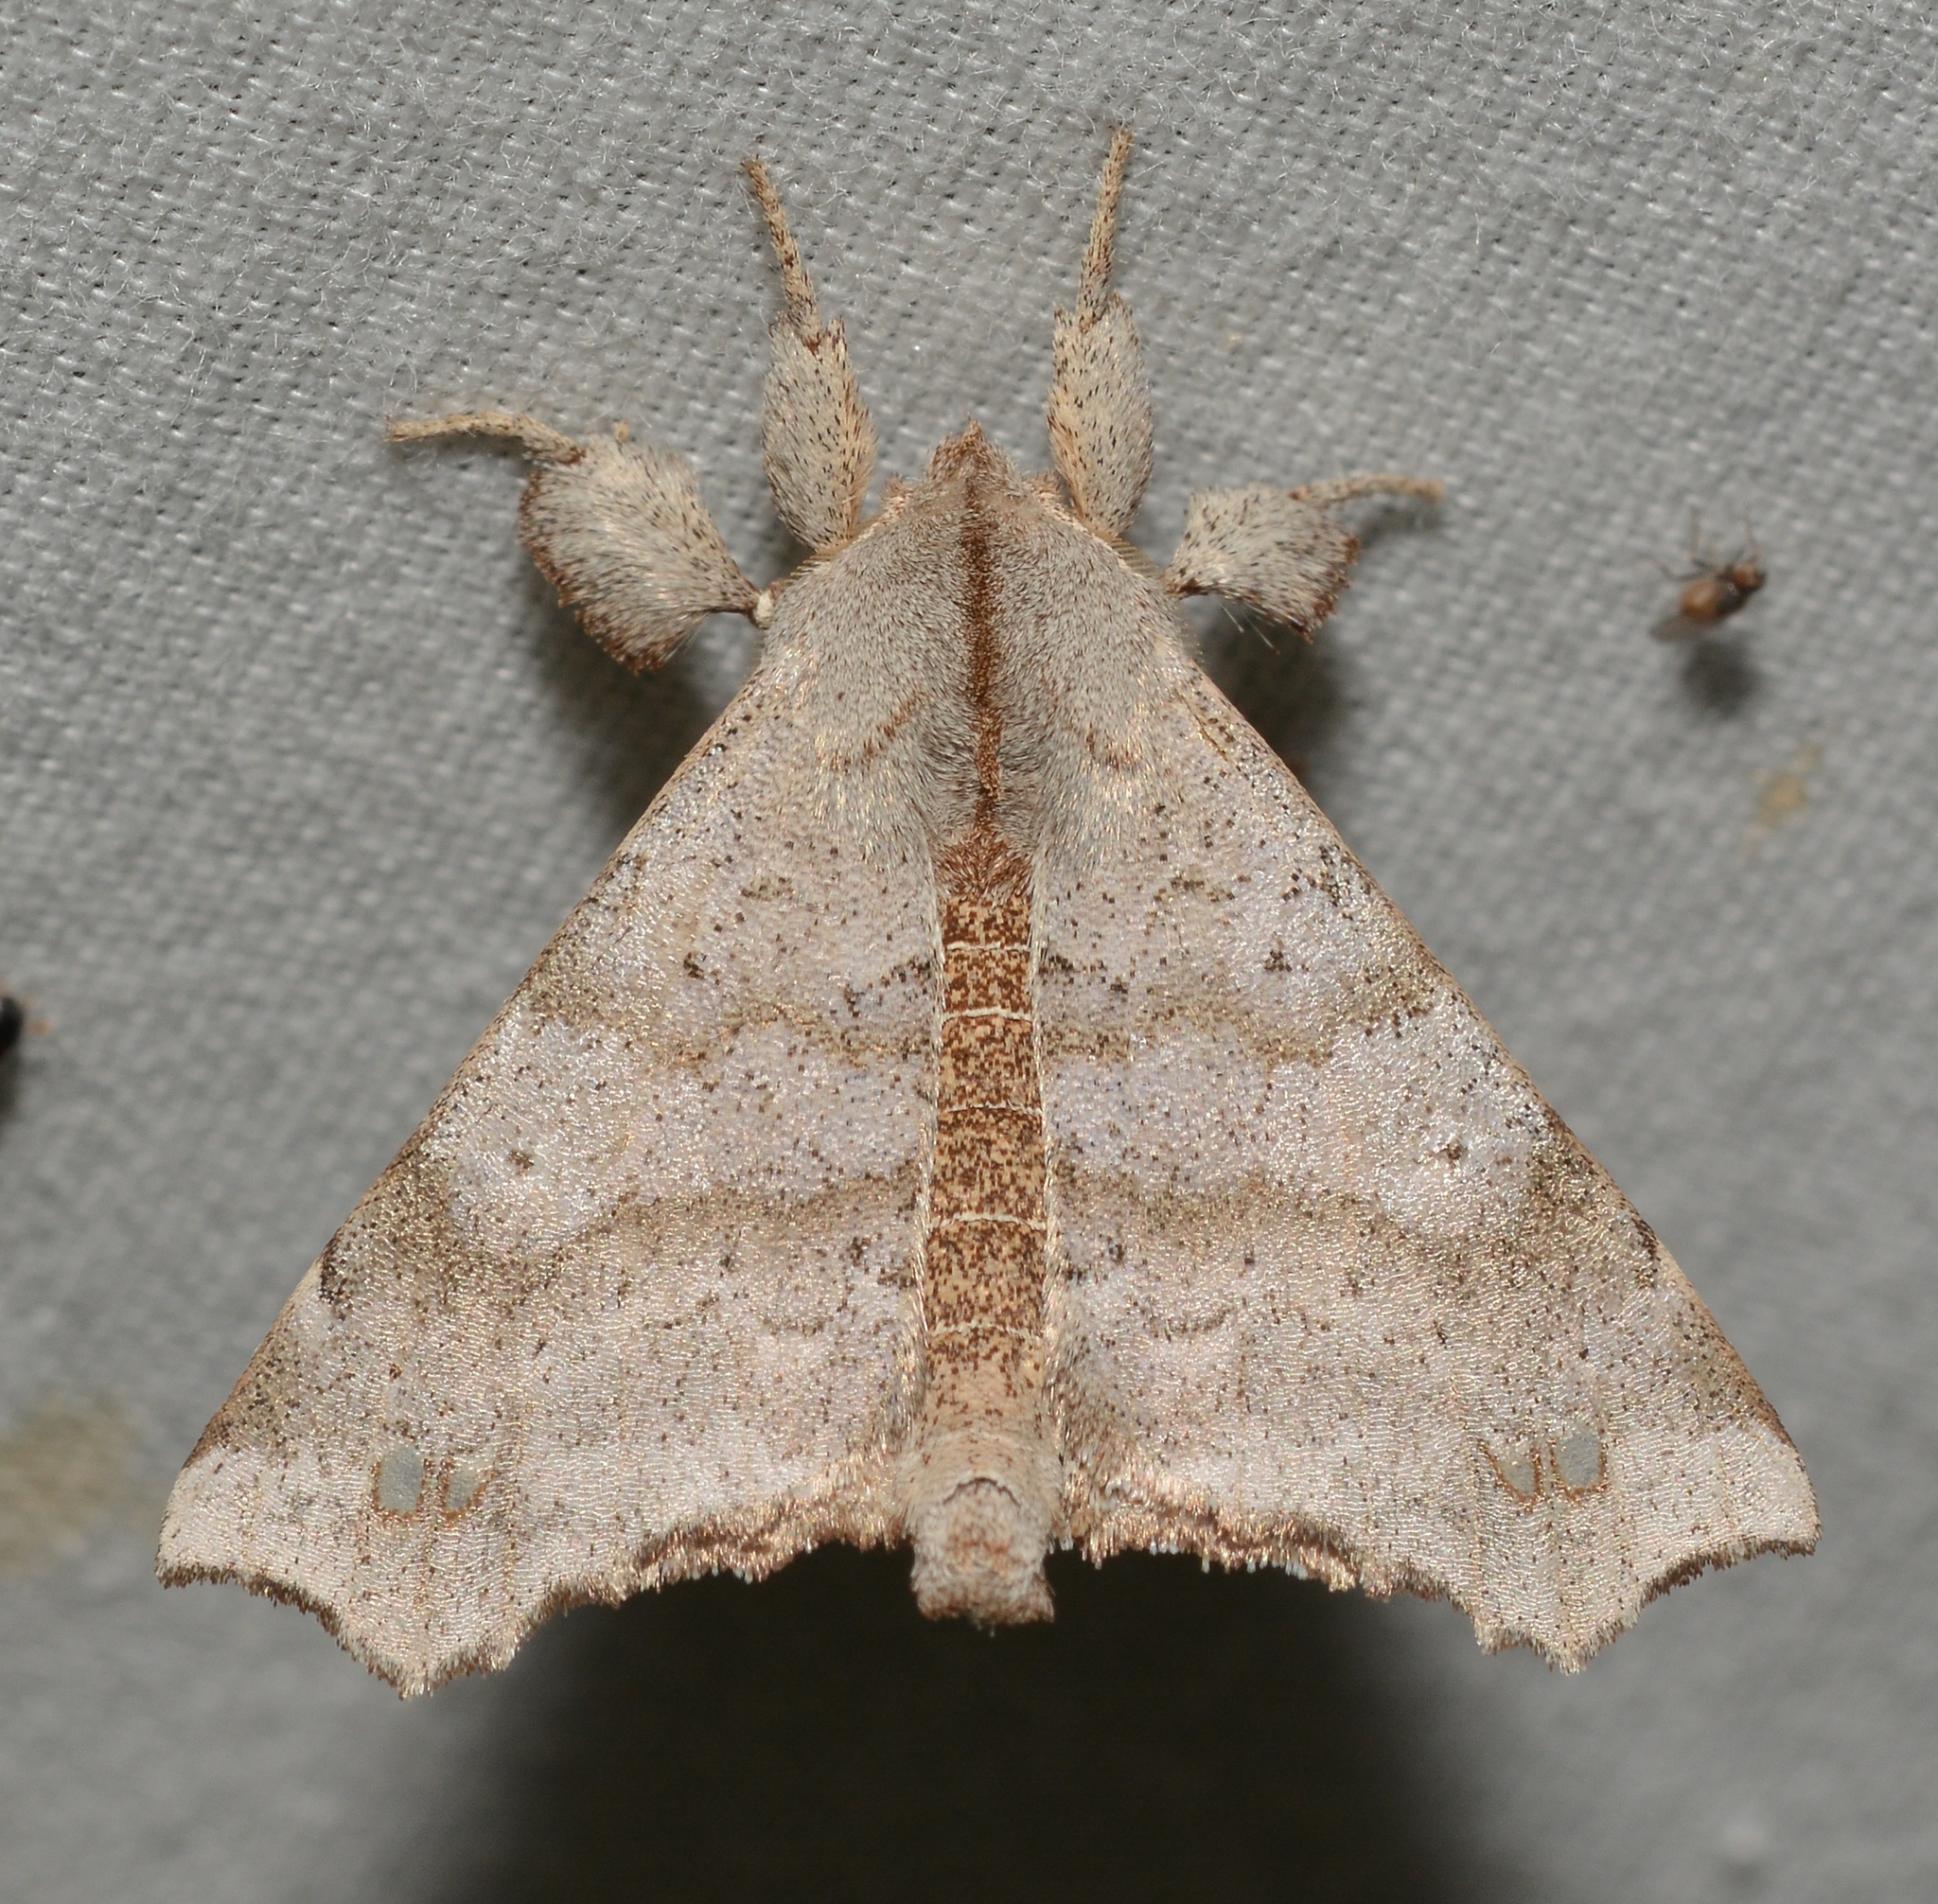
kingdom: Animalia
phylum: Arthropoda
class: Insecta
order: Lepidoptera
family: Apatelodidae
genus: Olceclostera
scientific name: Olceclostera angelica
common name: Angel moth
